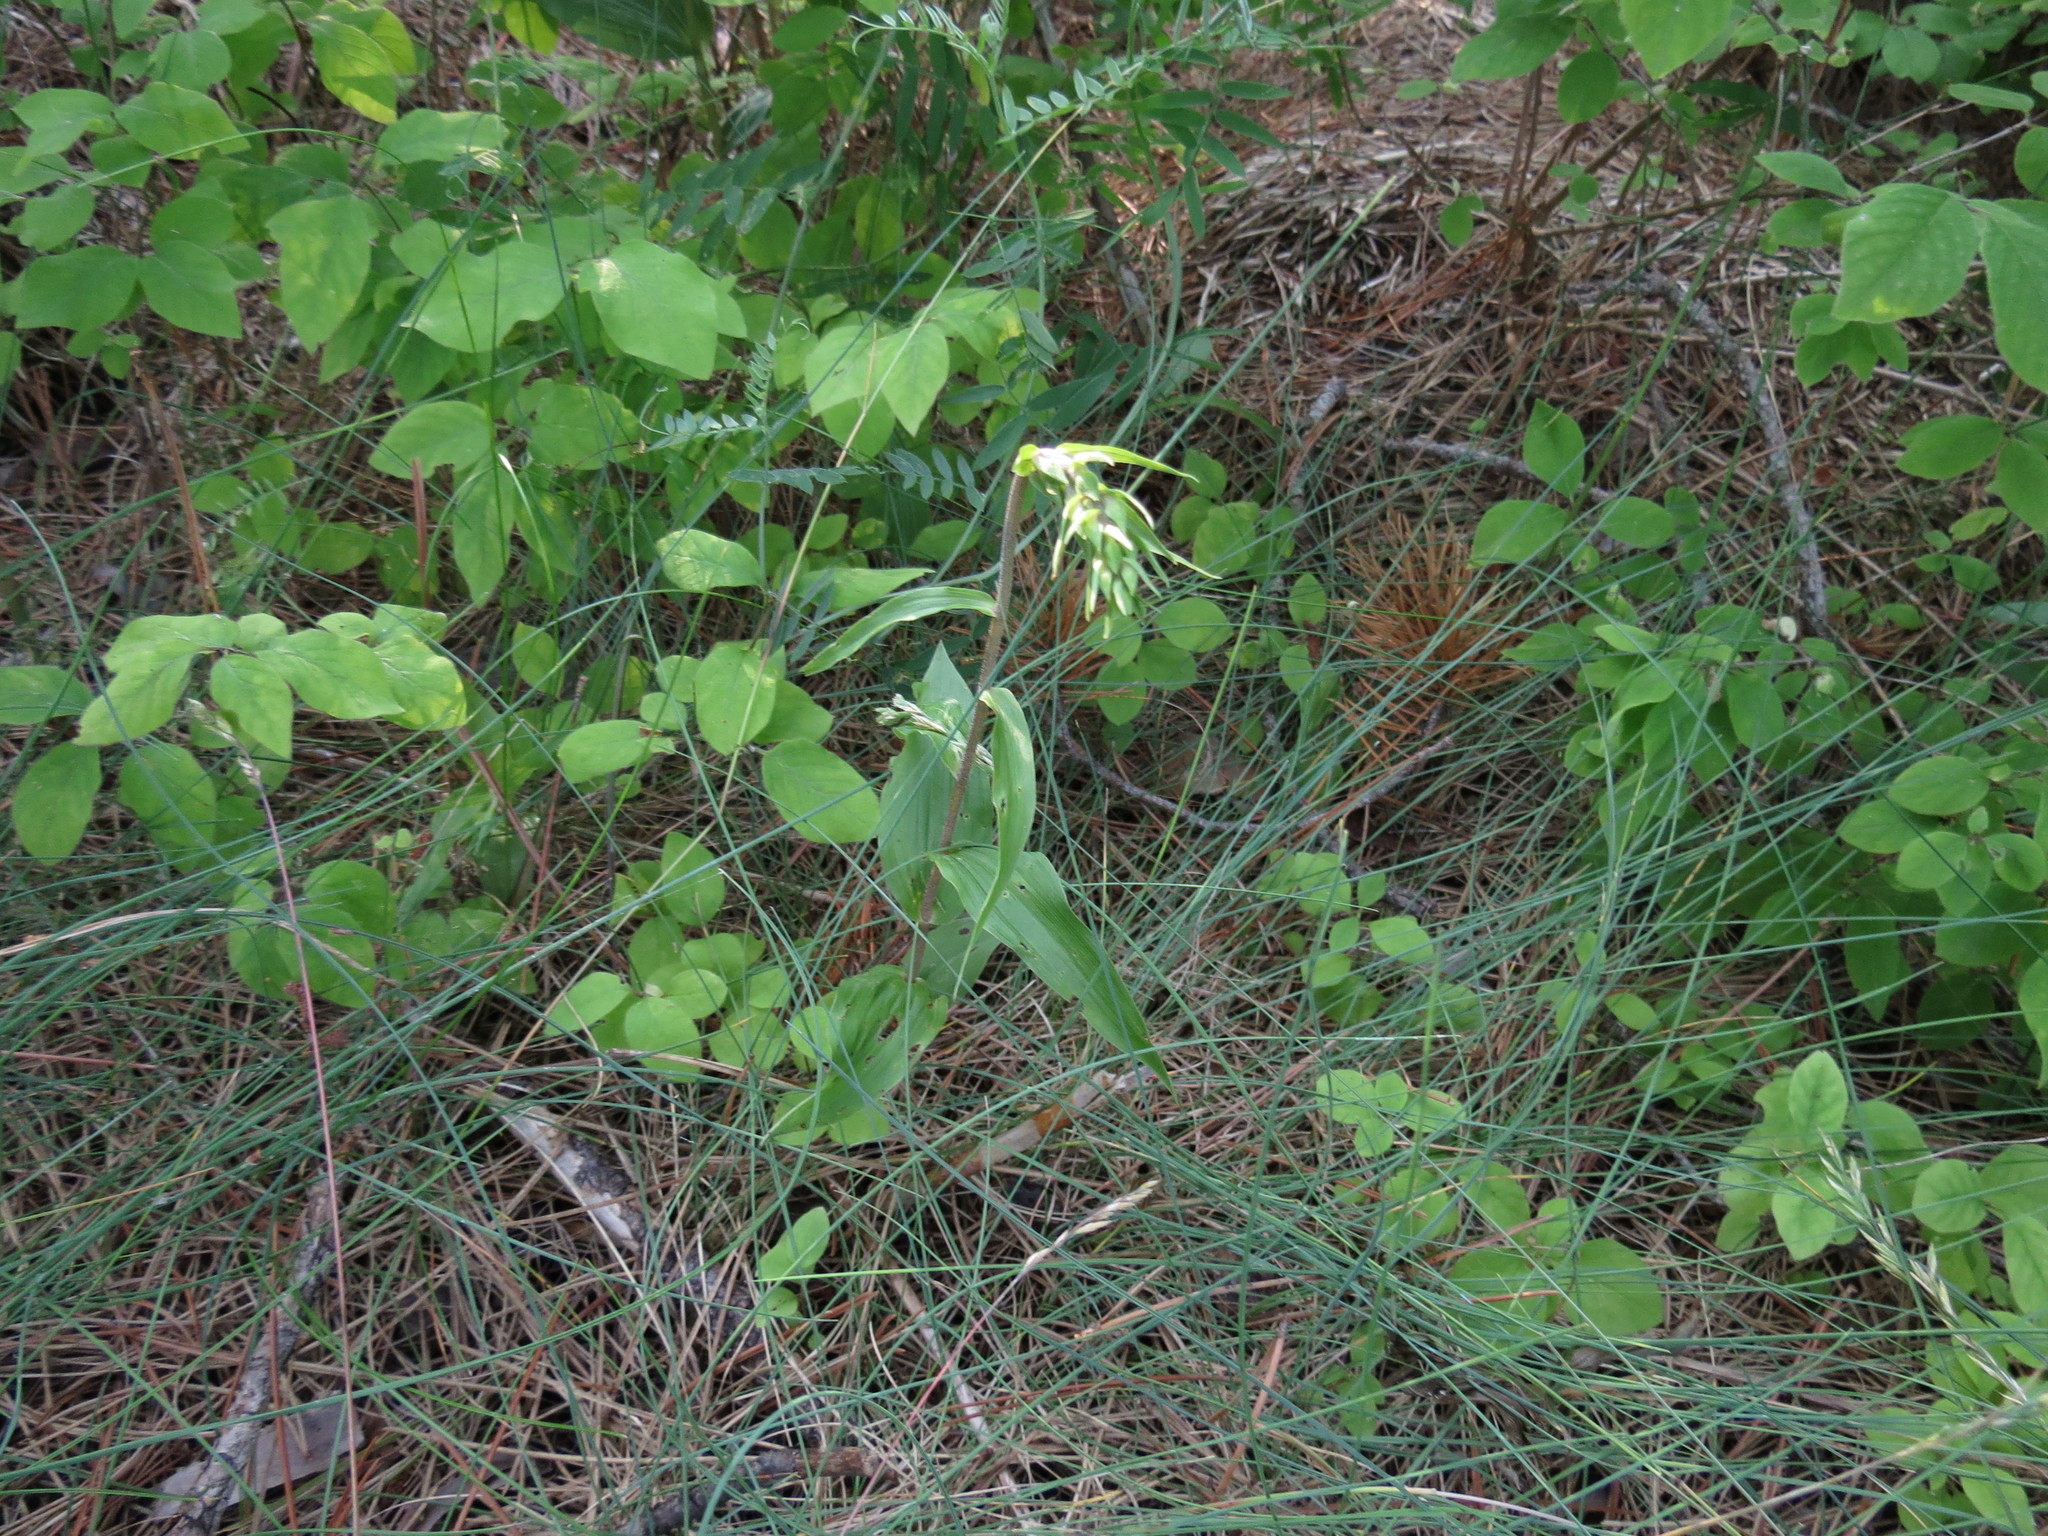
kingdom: Plantae
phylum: Tracheophyta
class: Liliopsida
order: Asparagales
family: Orchidaceae
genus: Epipactis
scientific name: Epipactis helleborine
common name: Broad-leaved helleborine
